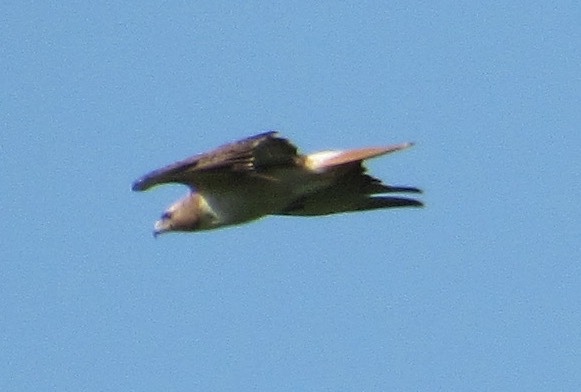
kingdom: Animalia
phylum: Chordata
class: Aves
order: Accipitriformes
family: Accipitridae
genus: Buteo
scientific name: Buteo jamaicensis
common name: Red-tailed hawk
